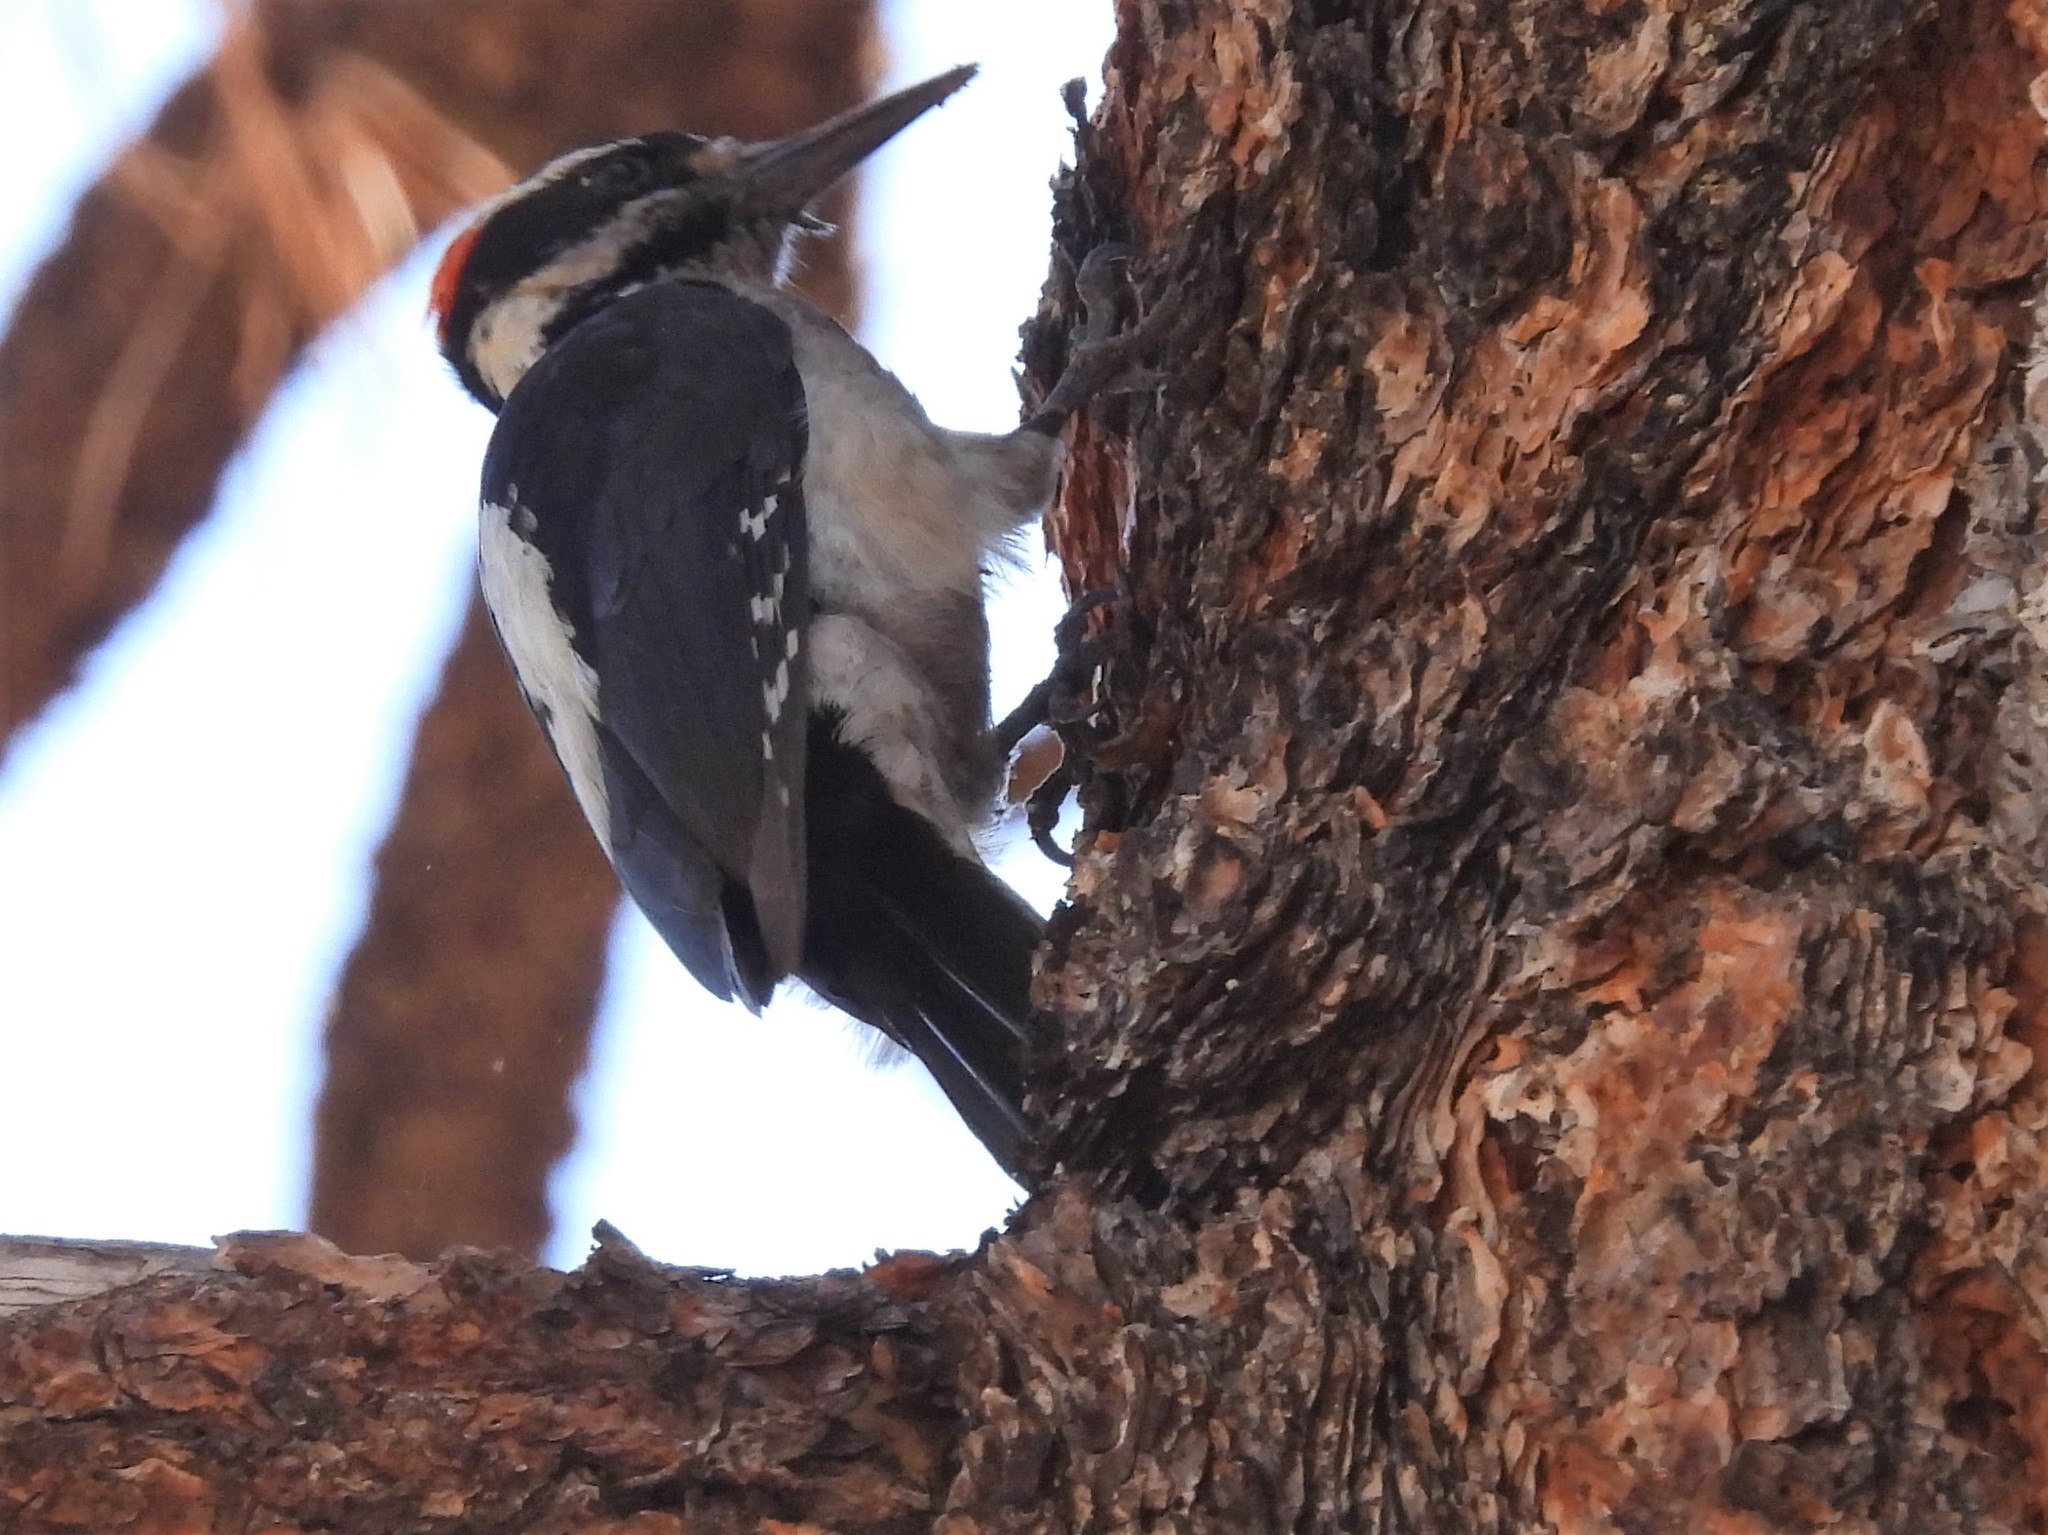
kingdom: Animalia
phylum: Chordata
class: Aves
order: Piciformes
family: Picidae
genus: Leuconotopicus
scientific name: Leuconotopicus villosus
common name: Hairy woodpecker
